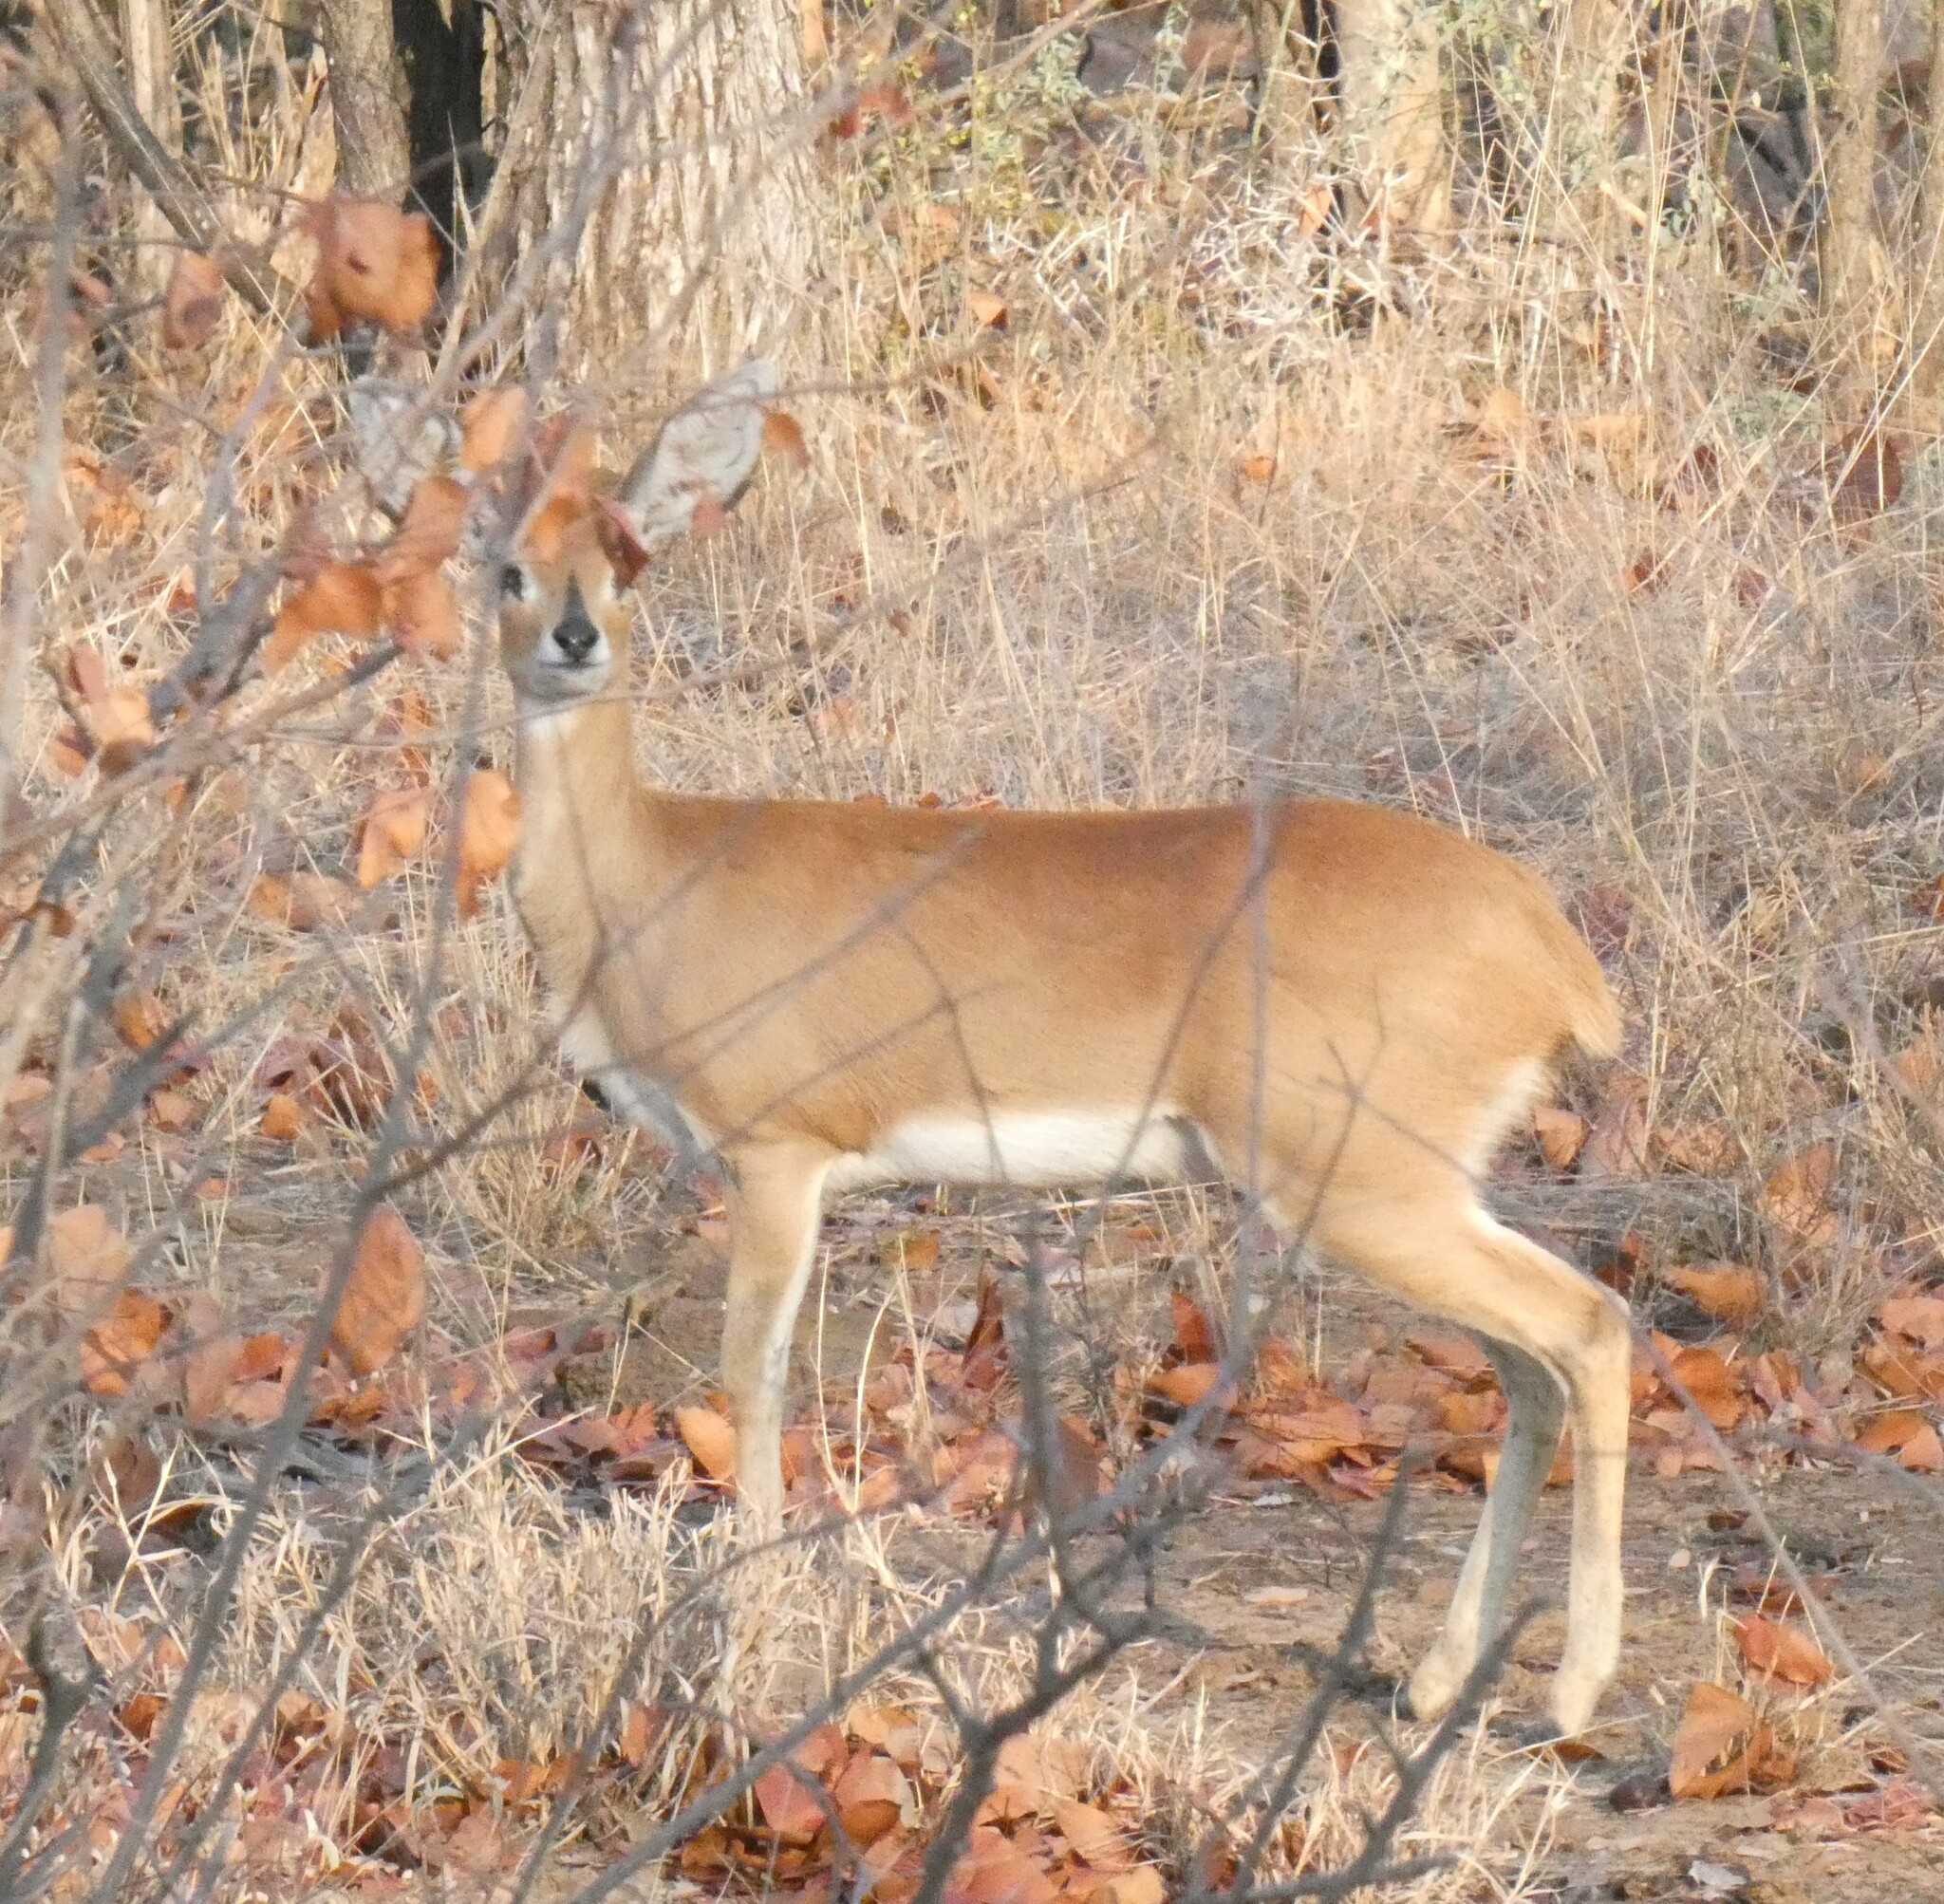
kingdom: Animalia
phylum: Chordata
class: Mammalia
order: Artiodactyla
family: Bovidae
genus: Raphicerus
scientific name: Raphicerus campestris
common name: Steenbok
